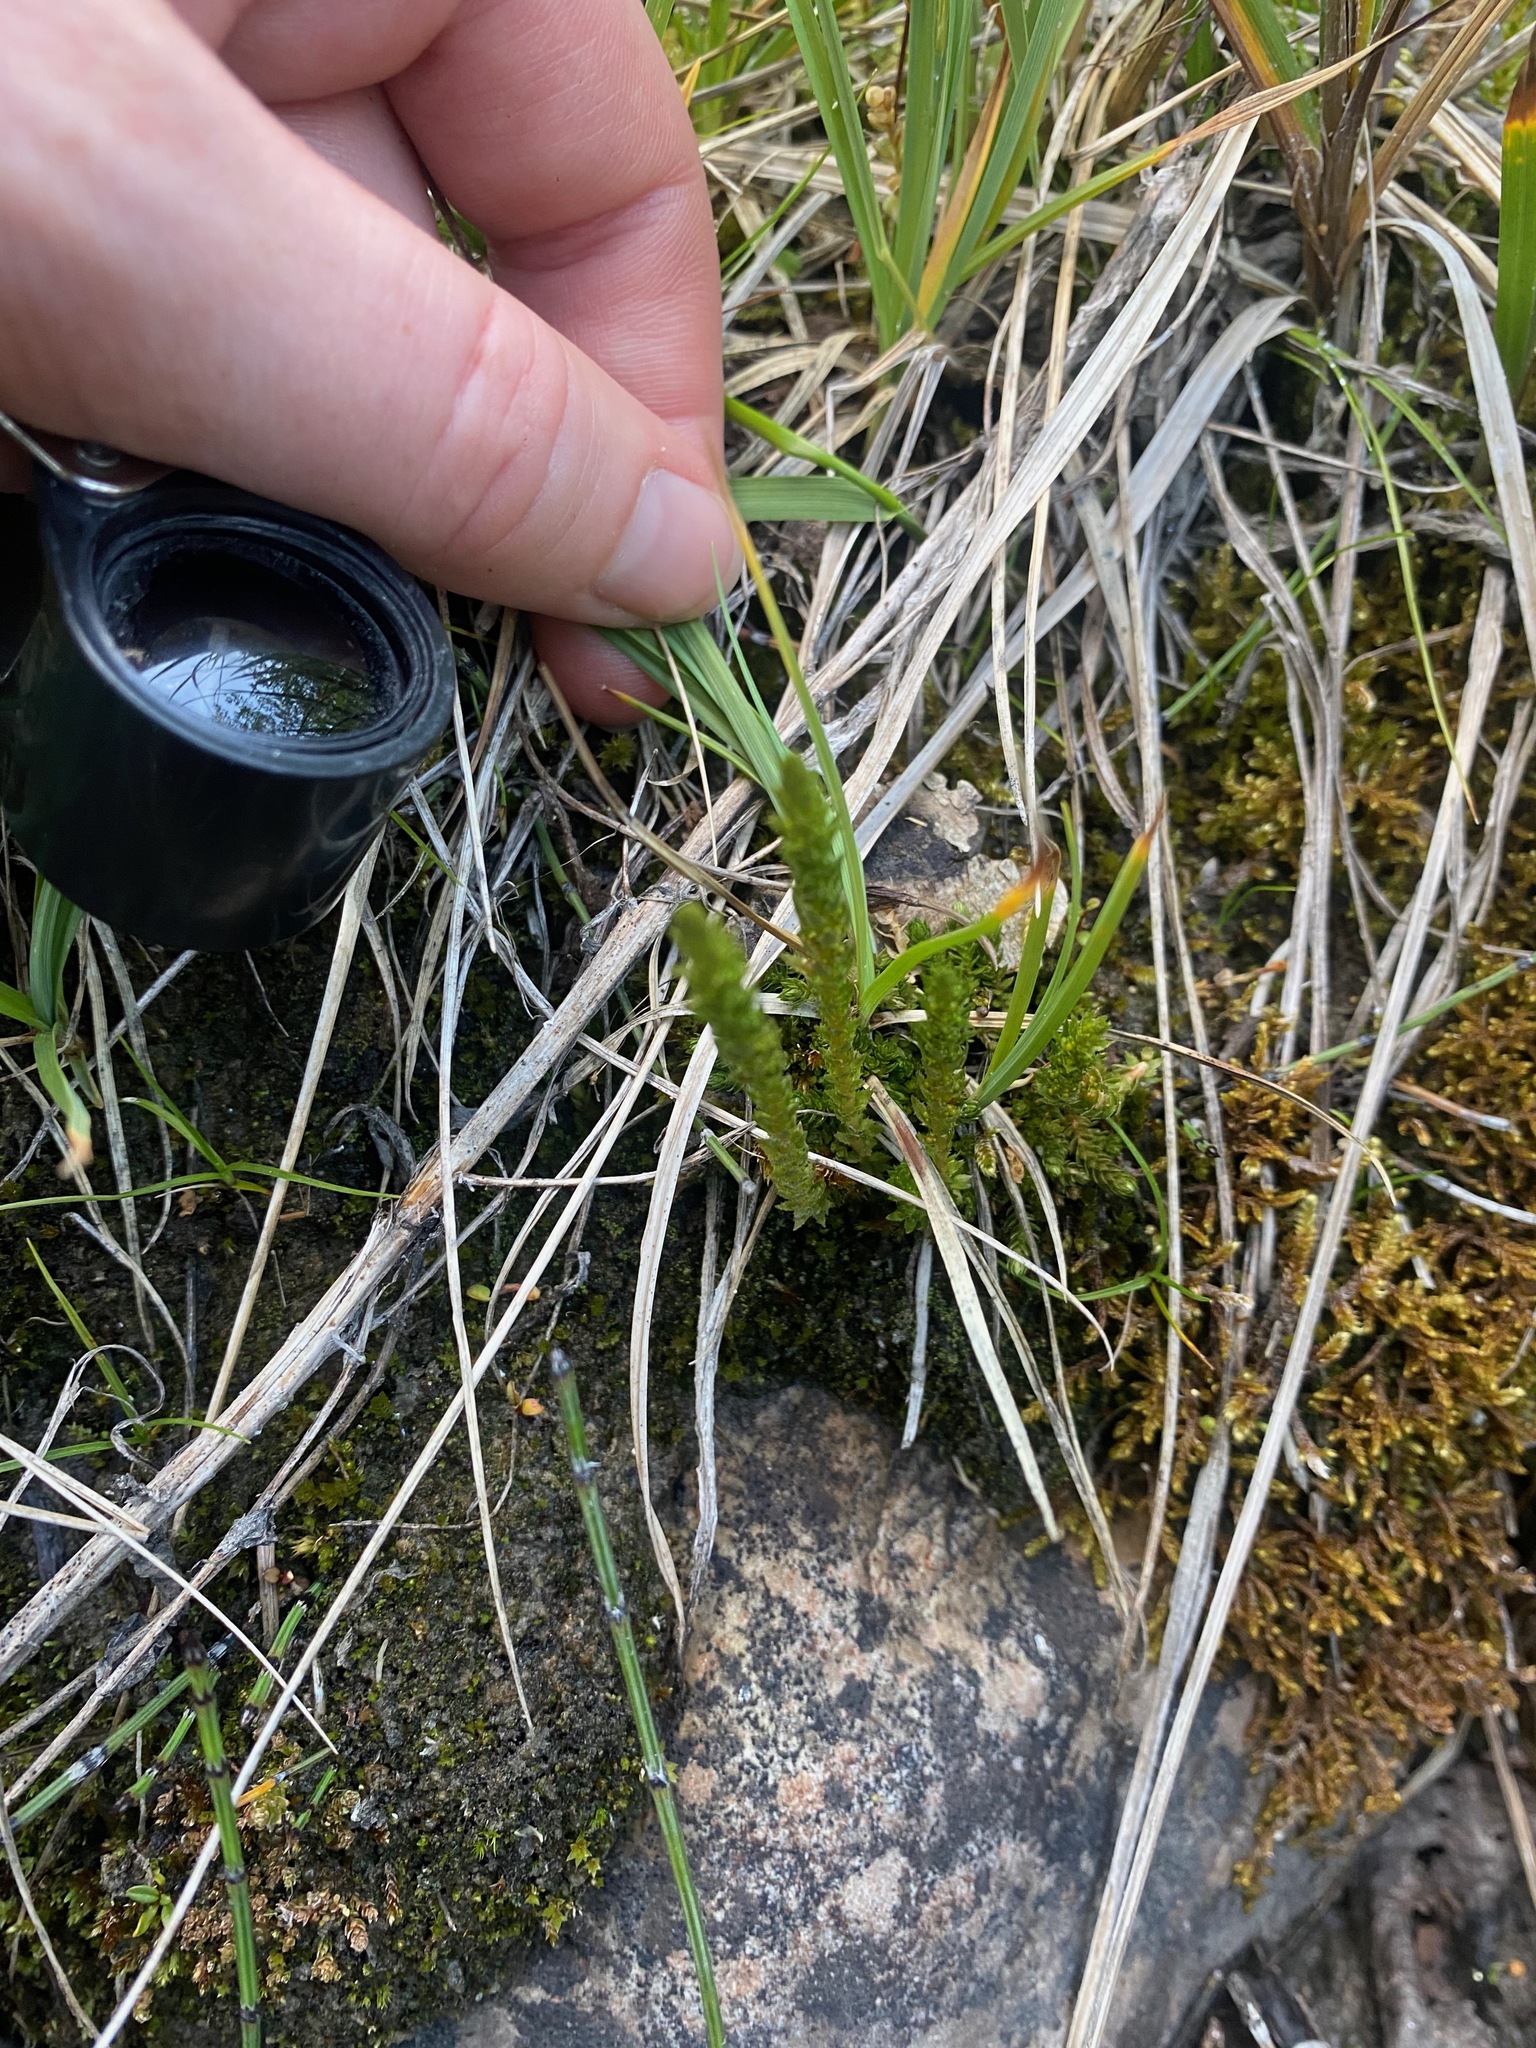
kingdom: Plantae
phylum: Tracheophyta
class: Lycopodiopsida
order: Selaginellales
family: Selaginellaceae
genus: Selaginella
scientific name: Selaginella selaginoides
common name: Prickly mountain-moss
